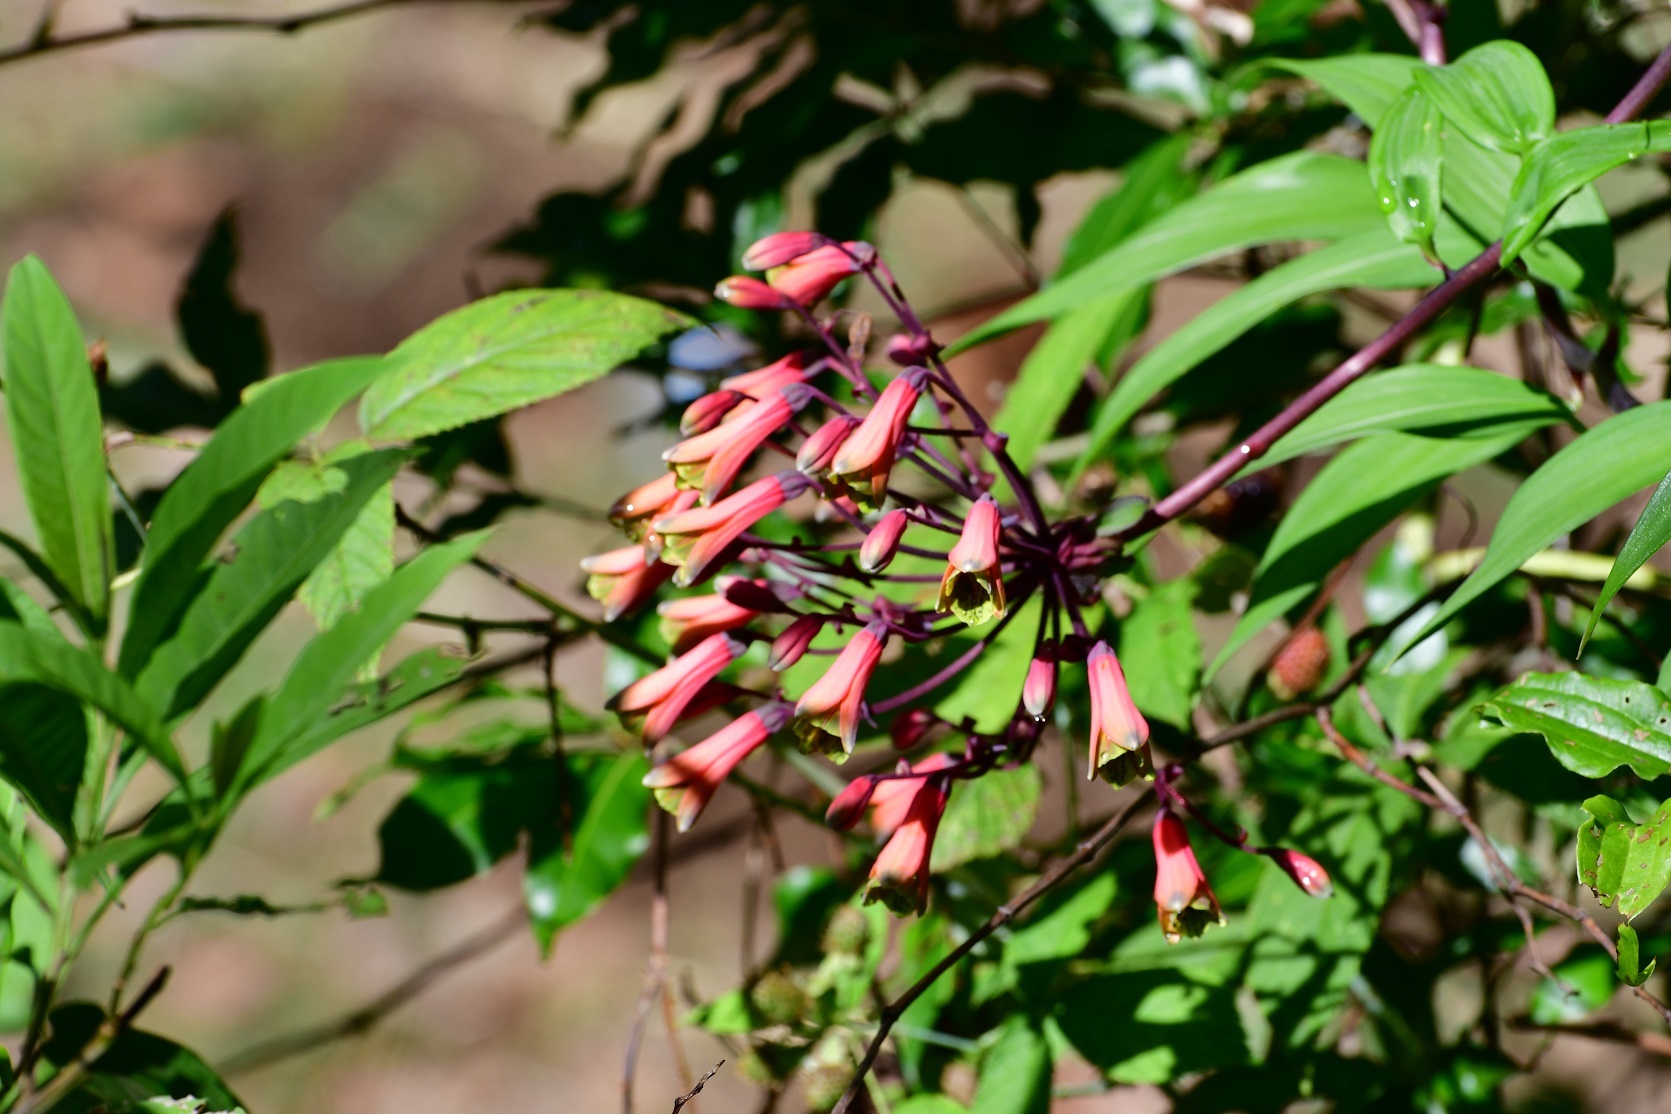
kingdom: Plantae
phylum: Tracheophyta
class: Liliopsida
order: Liliales
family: Alstroemeriaceae
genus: Bomarea
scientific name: Bomarea edulis
